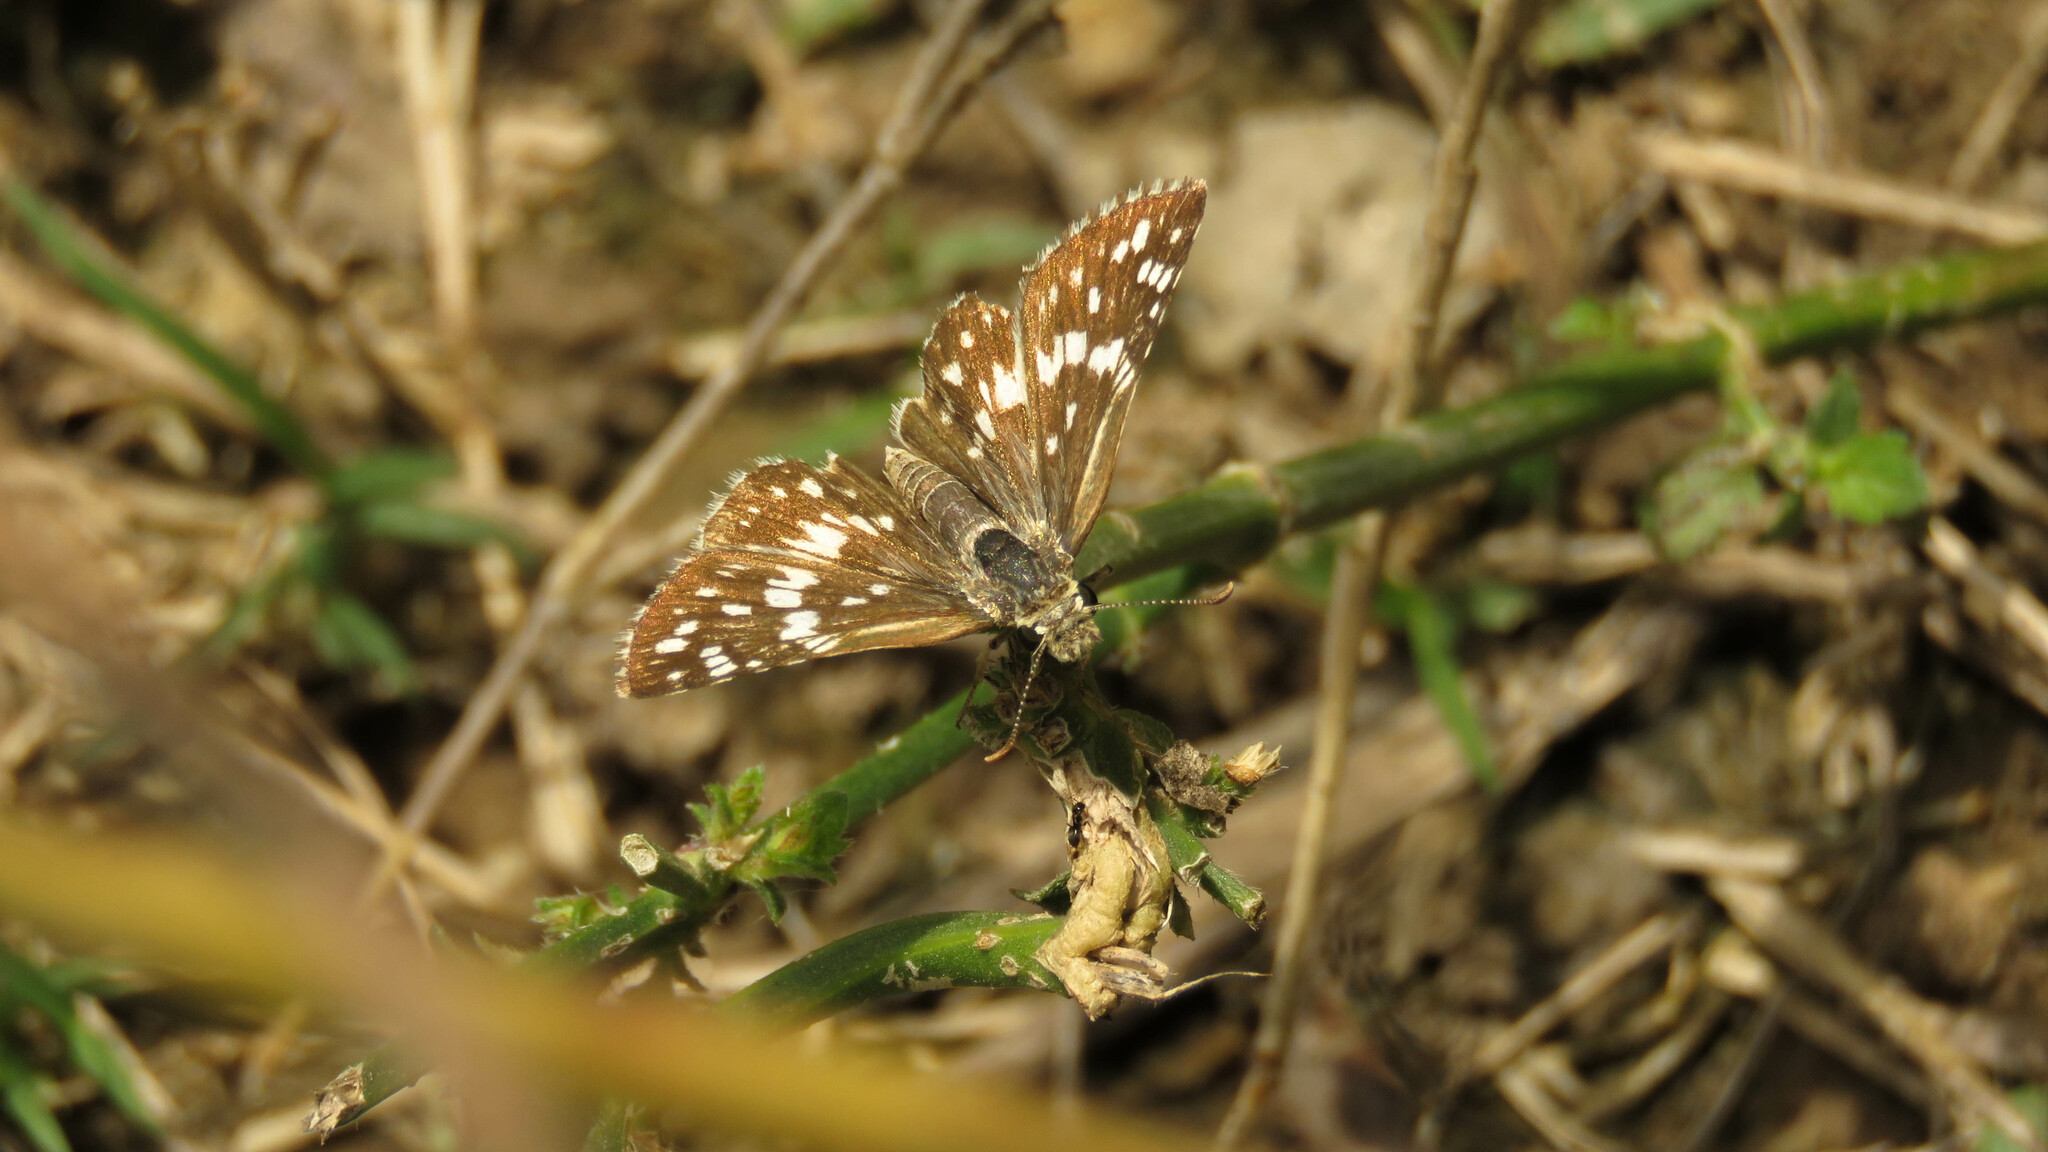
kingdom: Animalia
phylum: Arthropoda
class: Insecta
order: Lepidoptera
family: Hesperiidae
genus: Burnsius
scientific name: Burnsius orcynoides
